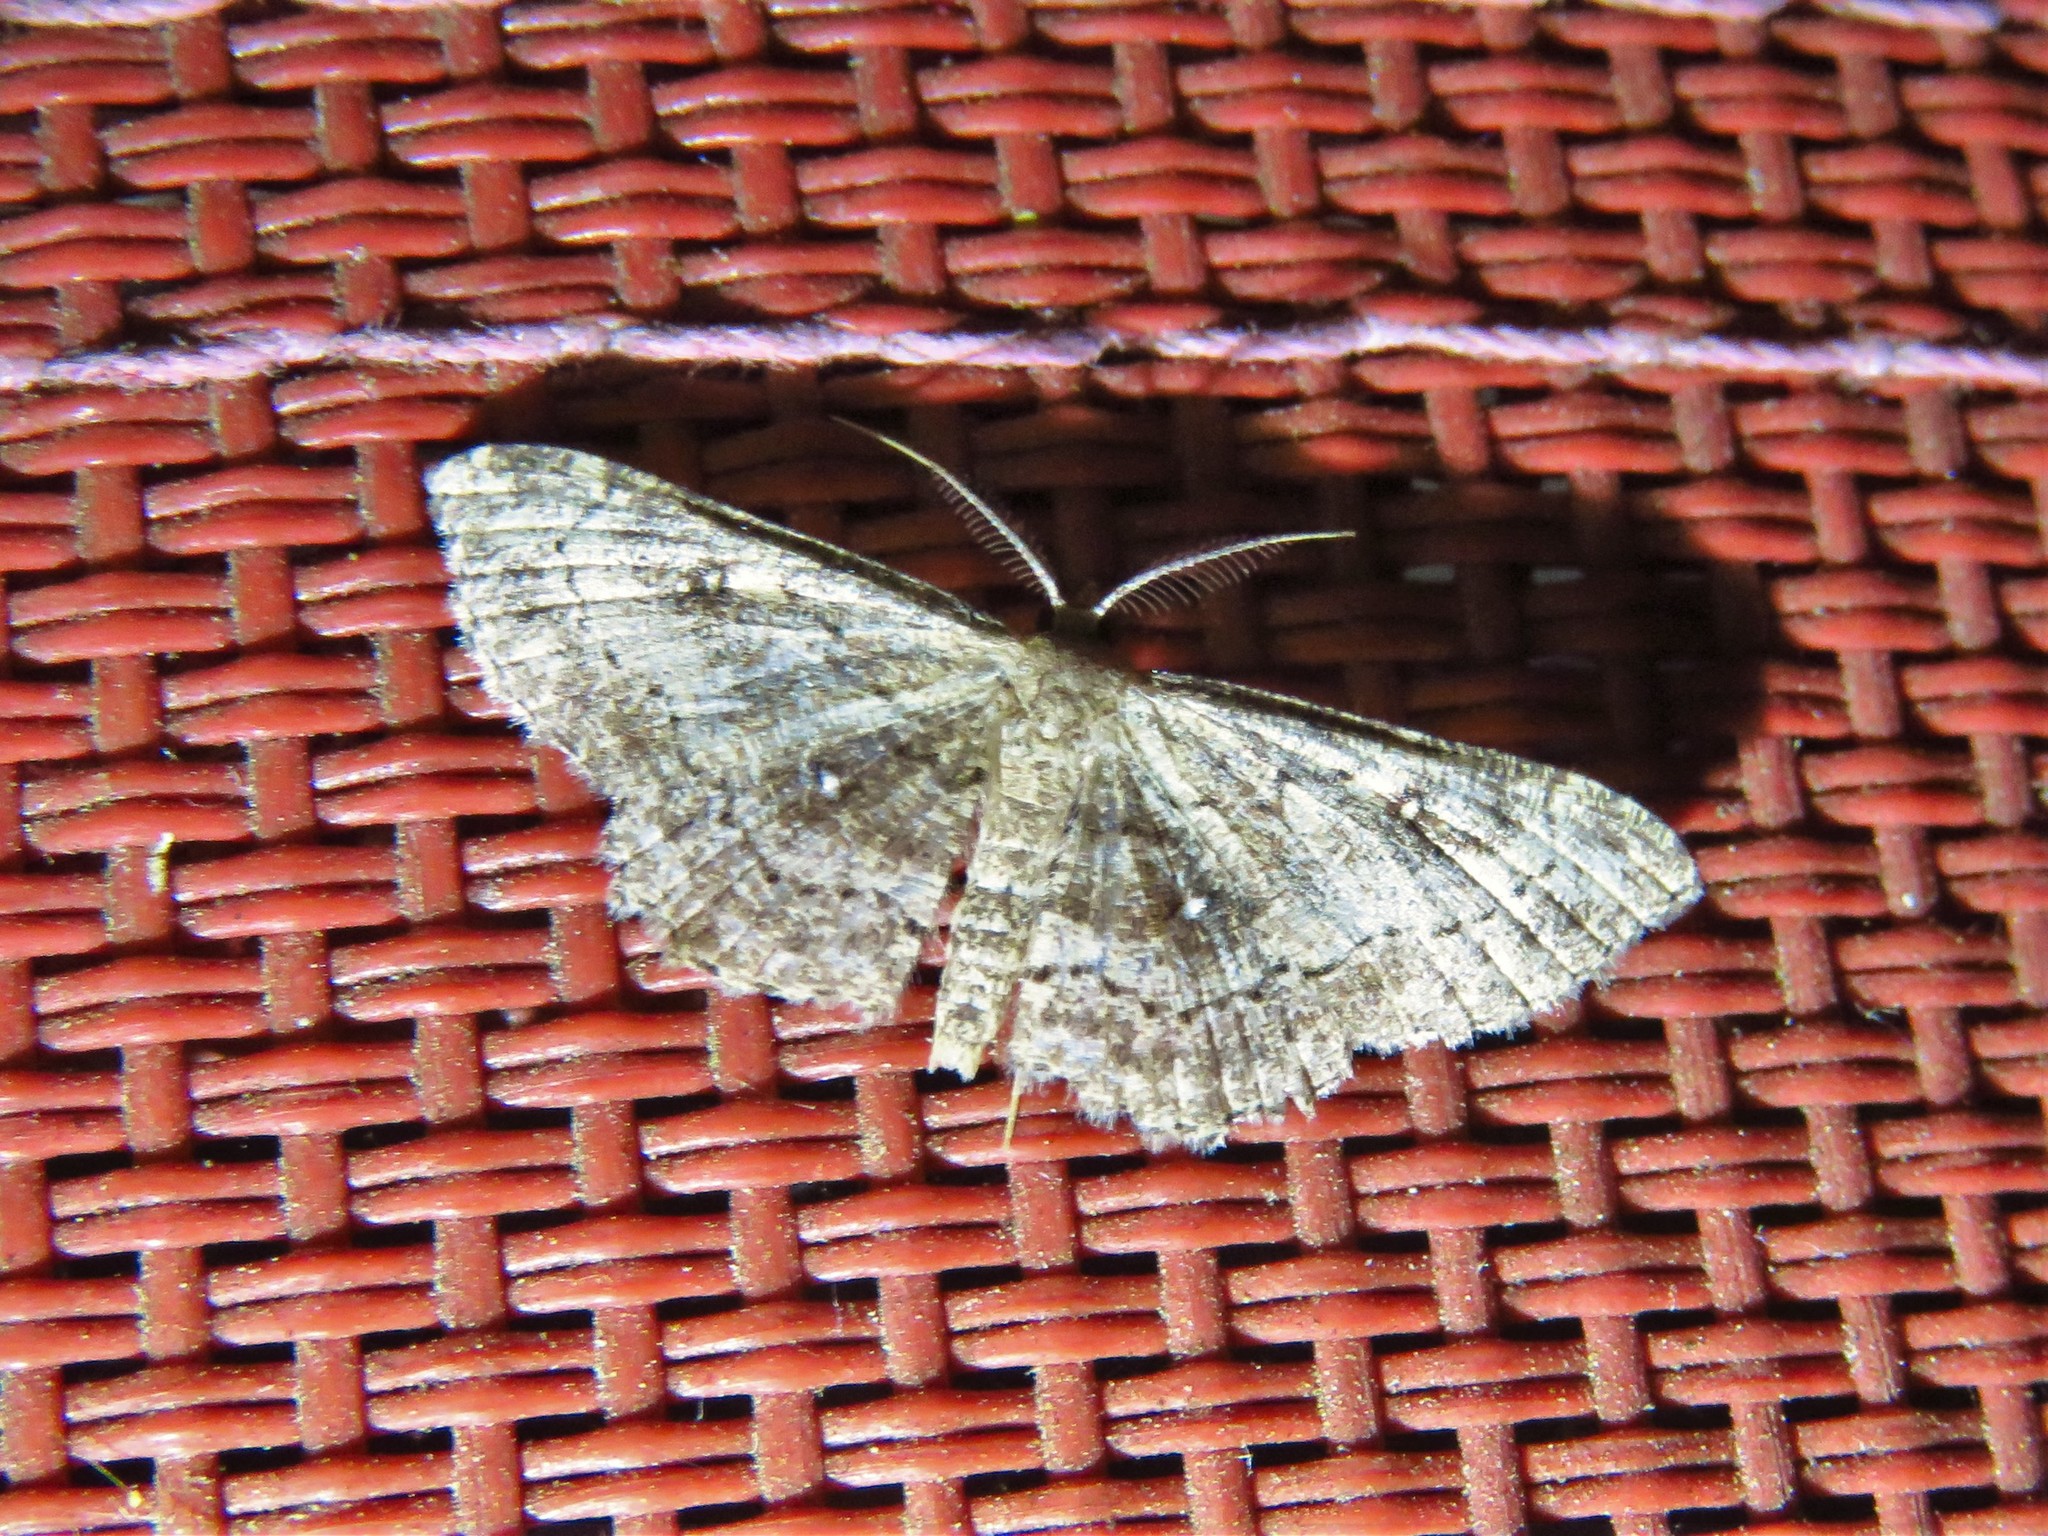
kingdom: Animalia
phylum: Arthropoda
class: Insecta
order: Lepidoptera
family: Geometridae
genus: Cyclophora
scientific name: Cyclophora nanaria
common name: Cankerworm
